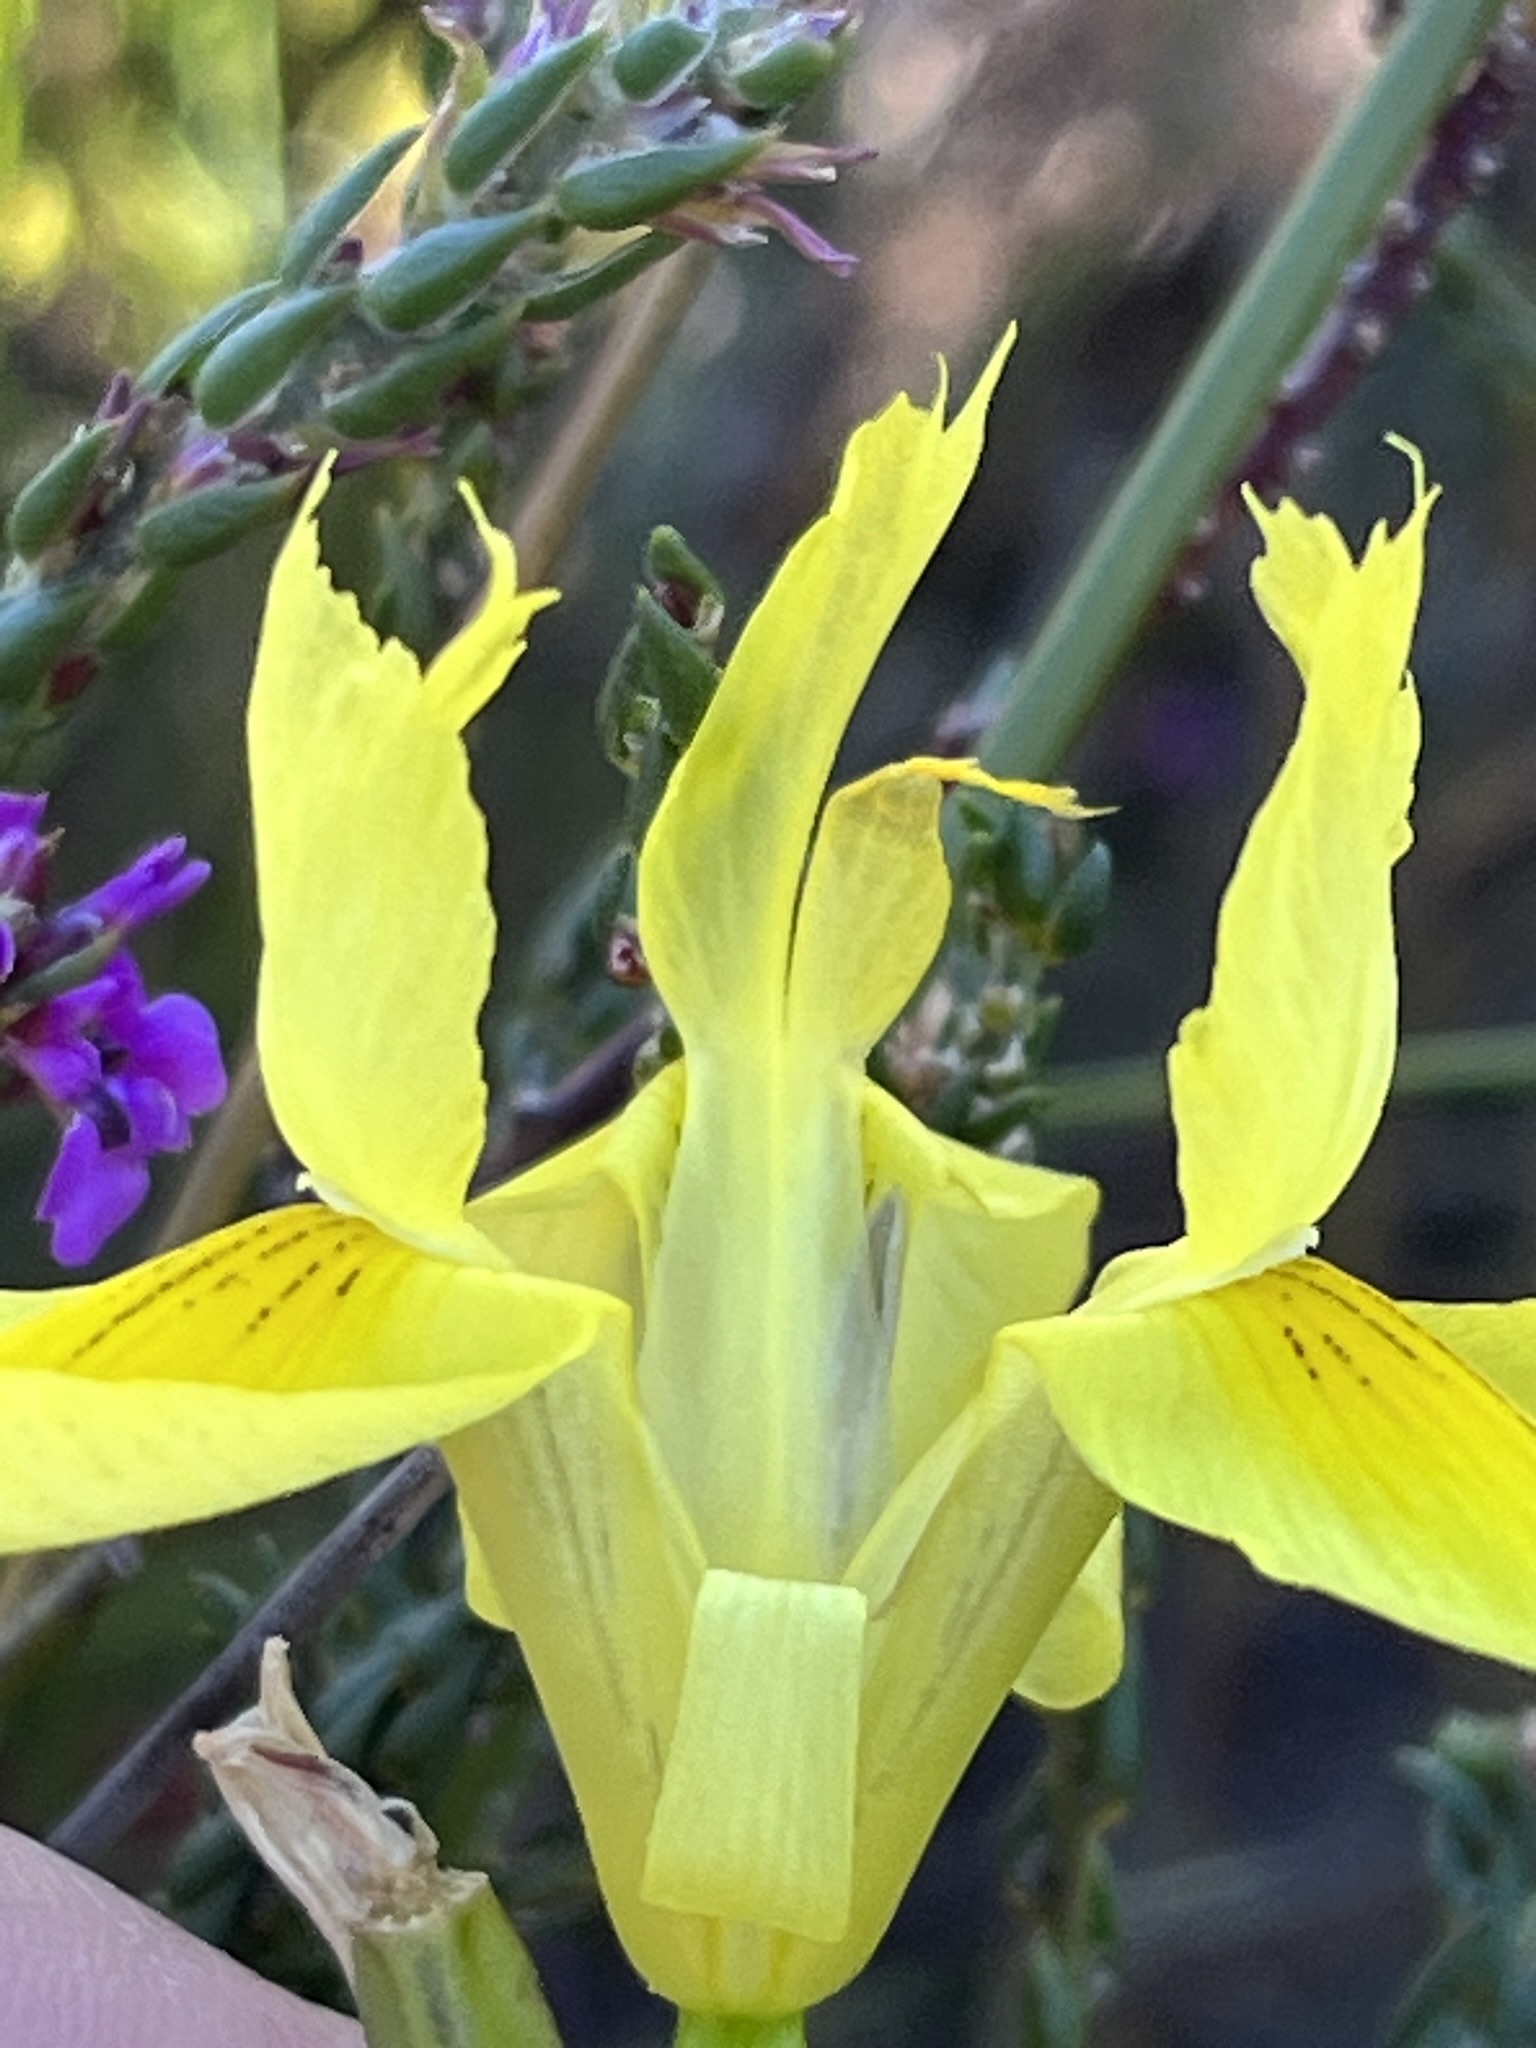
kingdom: Plantae
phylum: Tracheophyta
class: Liliopsida
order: Asparagales
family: Iridaceae
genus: Moraea
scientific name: Moraea neglecta
